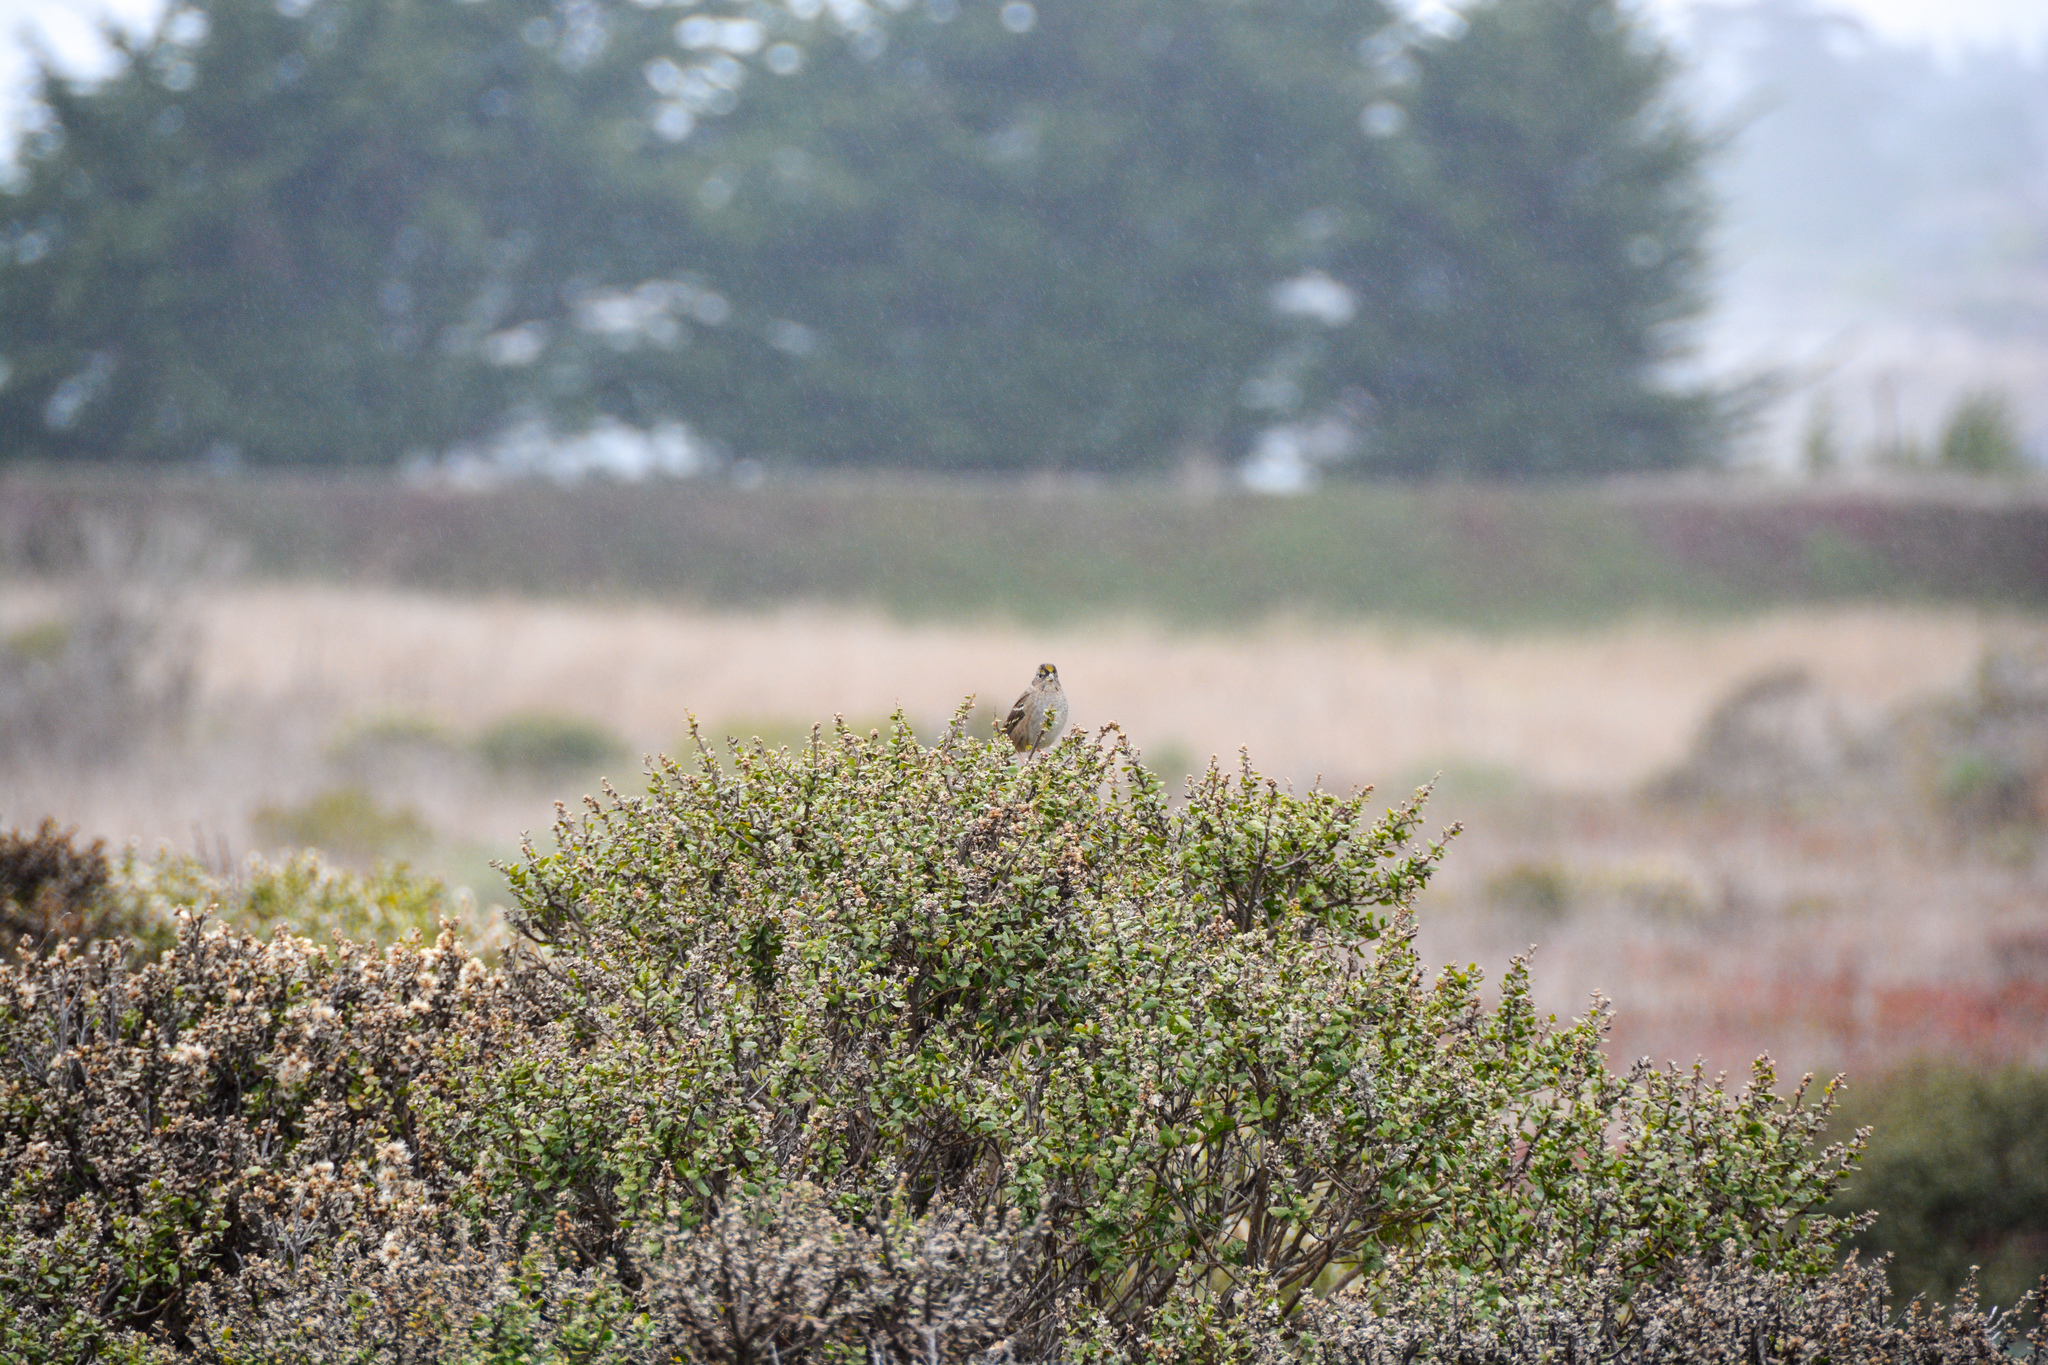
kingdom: Animalia
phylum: Chordata
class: Aves
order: Passeriformes
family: Passerellidae
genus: Zonotrichia
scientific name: Zonotrichia atricapilla
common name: Golden-crowned sparrow
